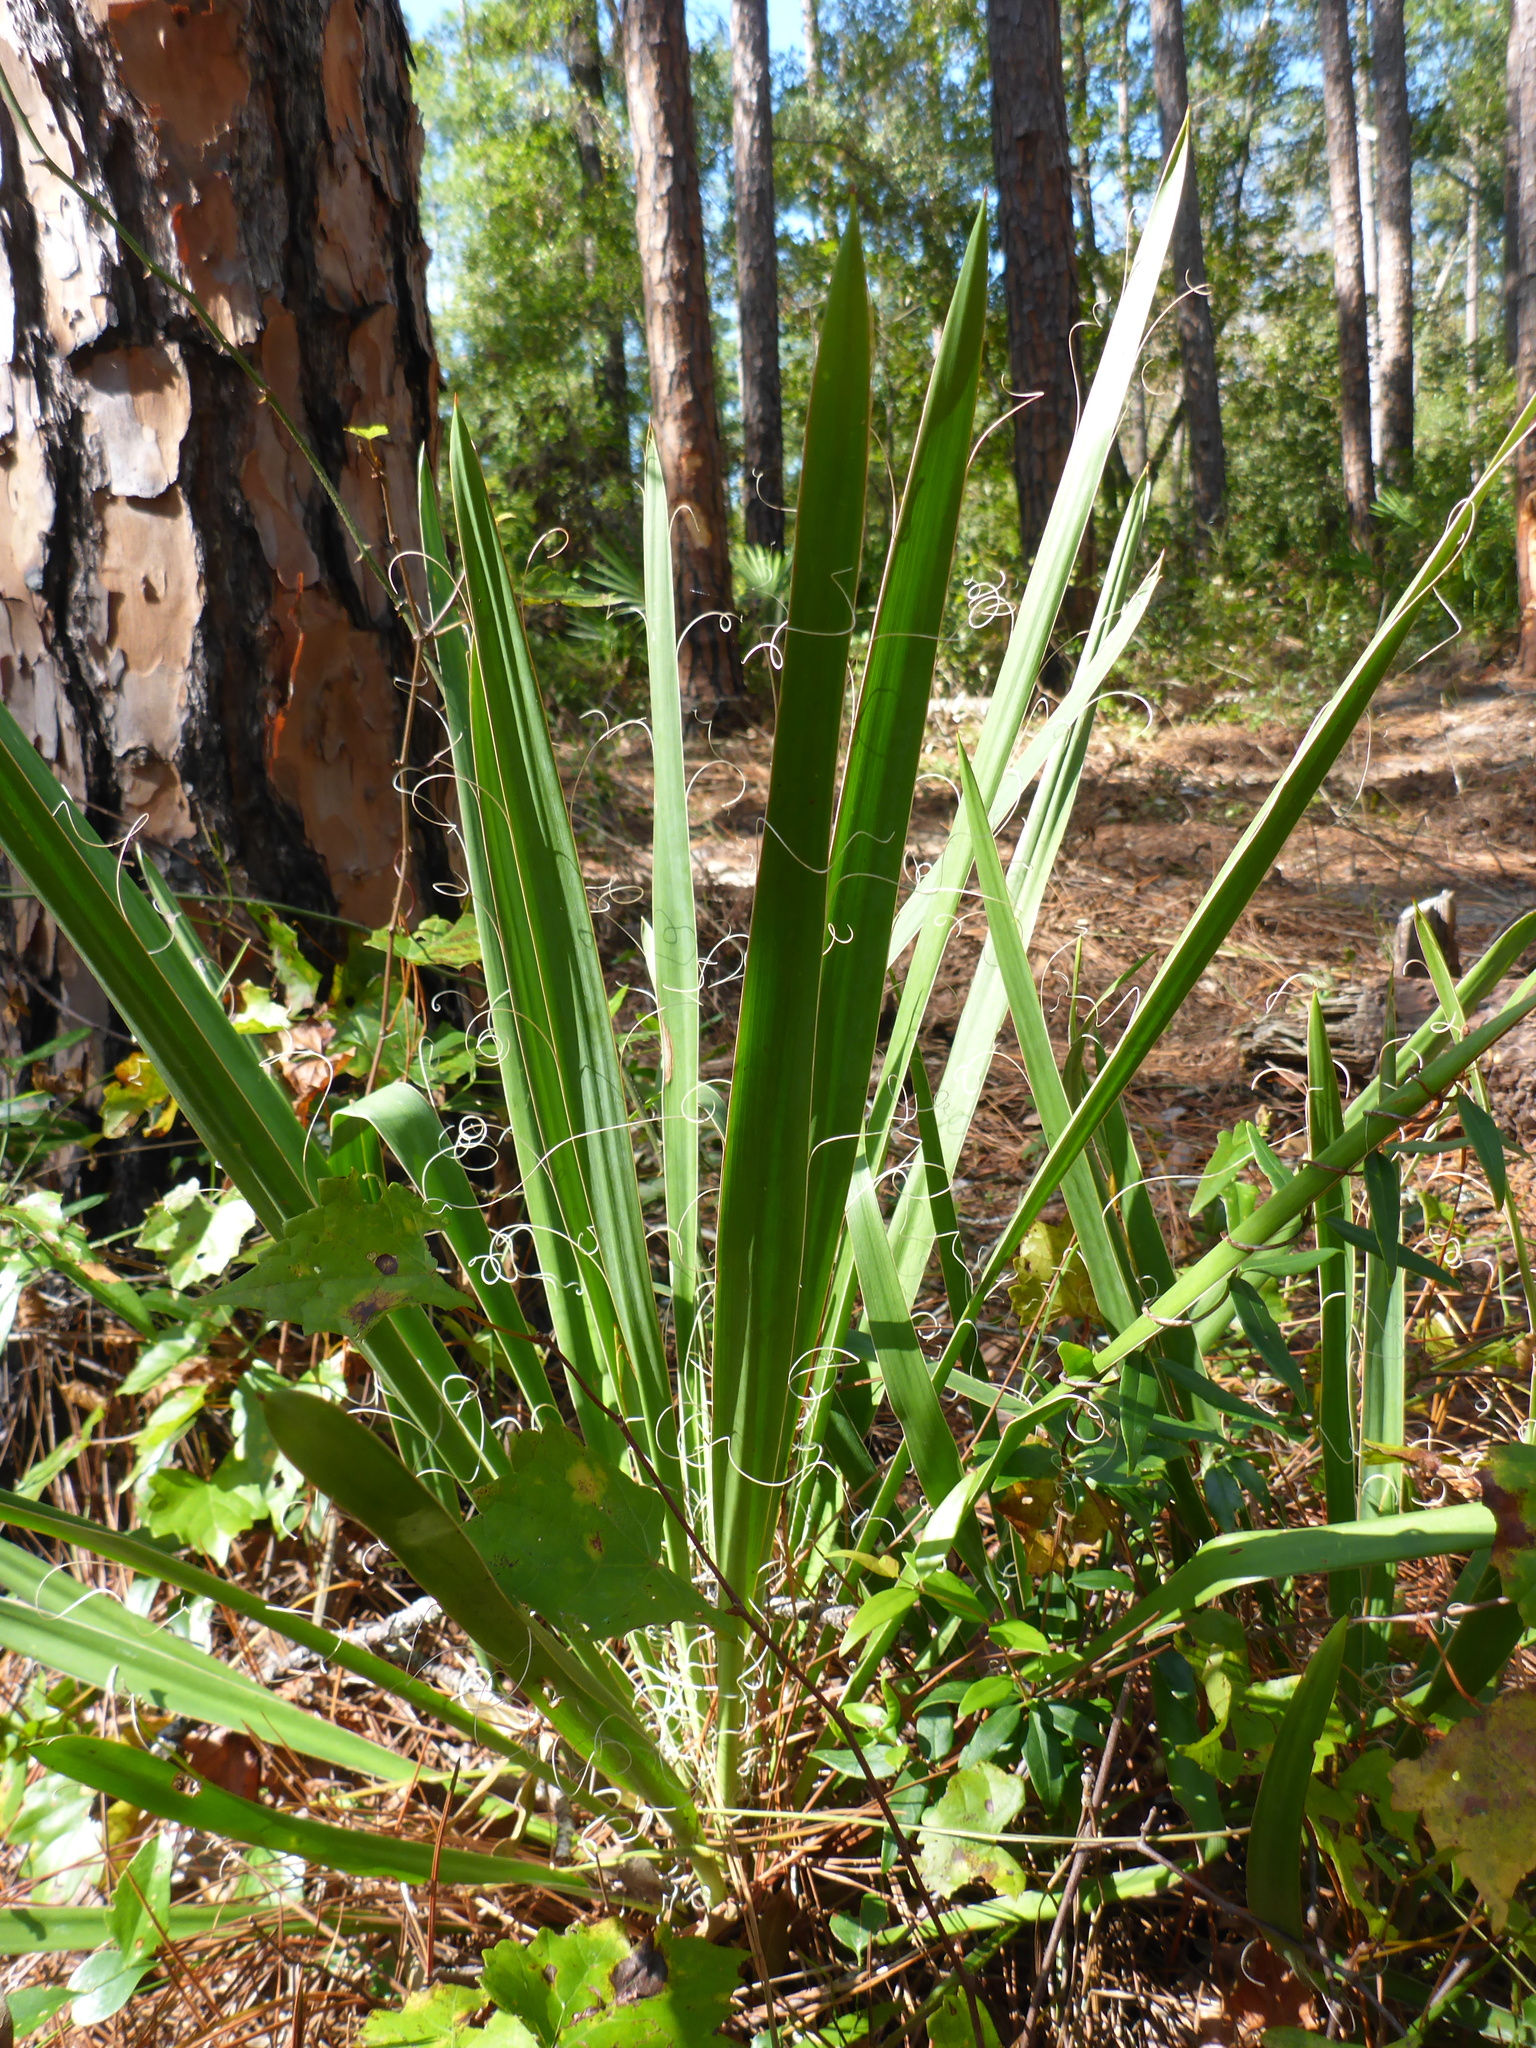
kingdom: Plantae
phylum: Tracheophyta
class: Liliopsida
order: Asparagales
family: Asparagaceae
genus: Yucca
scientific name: Yucca filamentosa
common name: Adam's-needle
